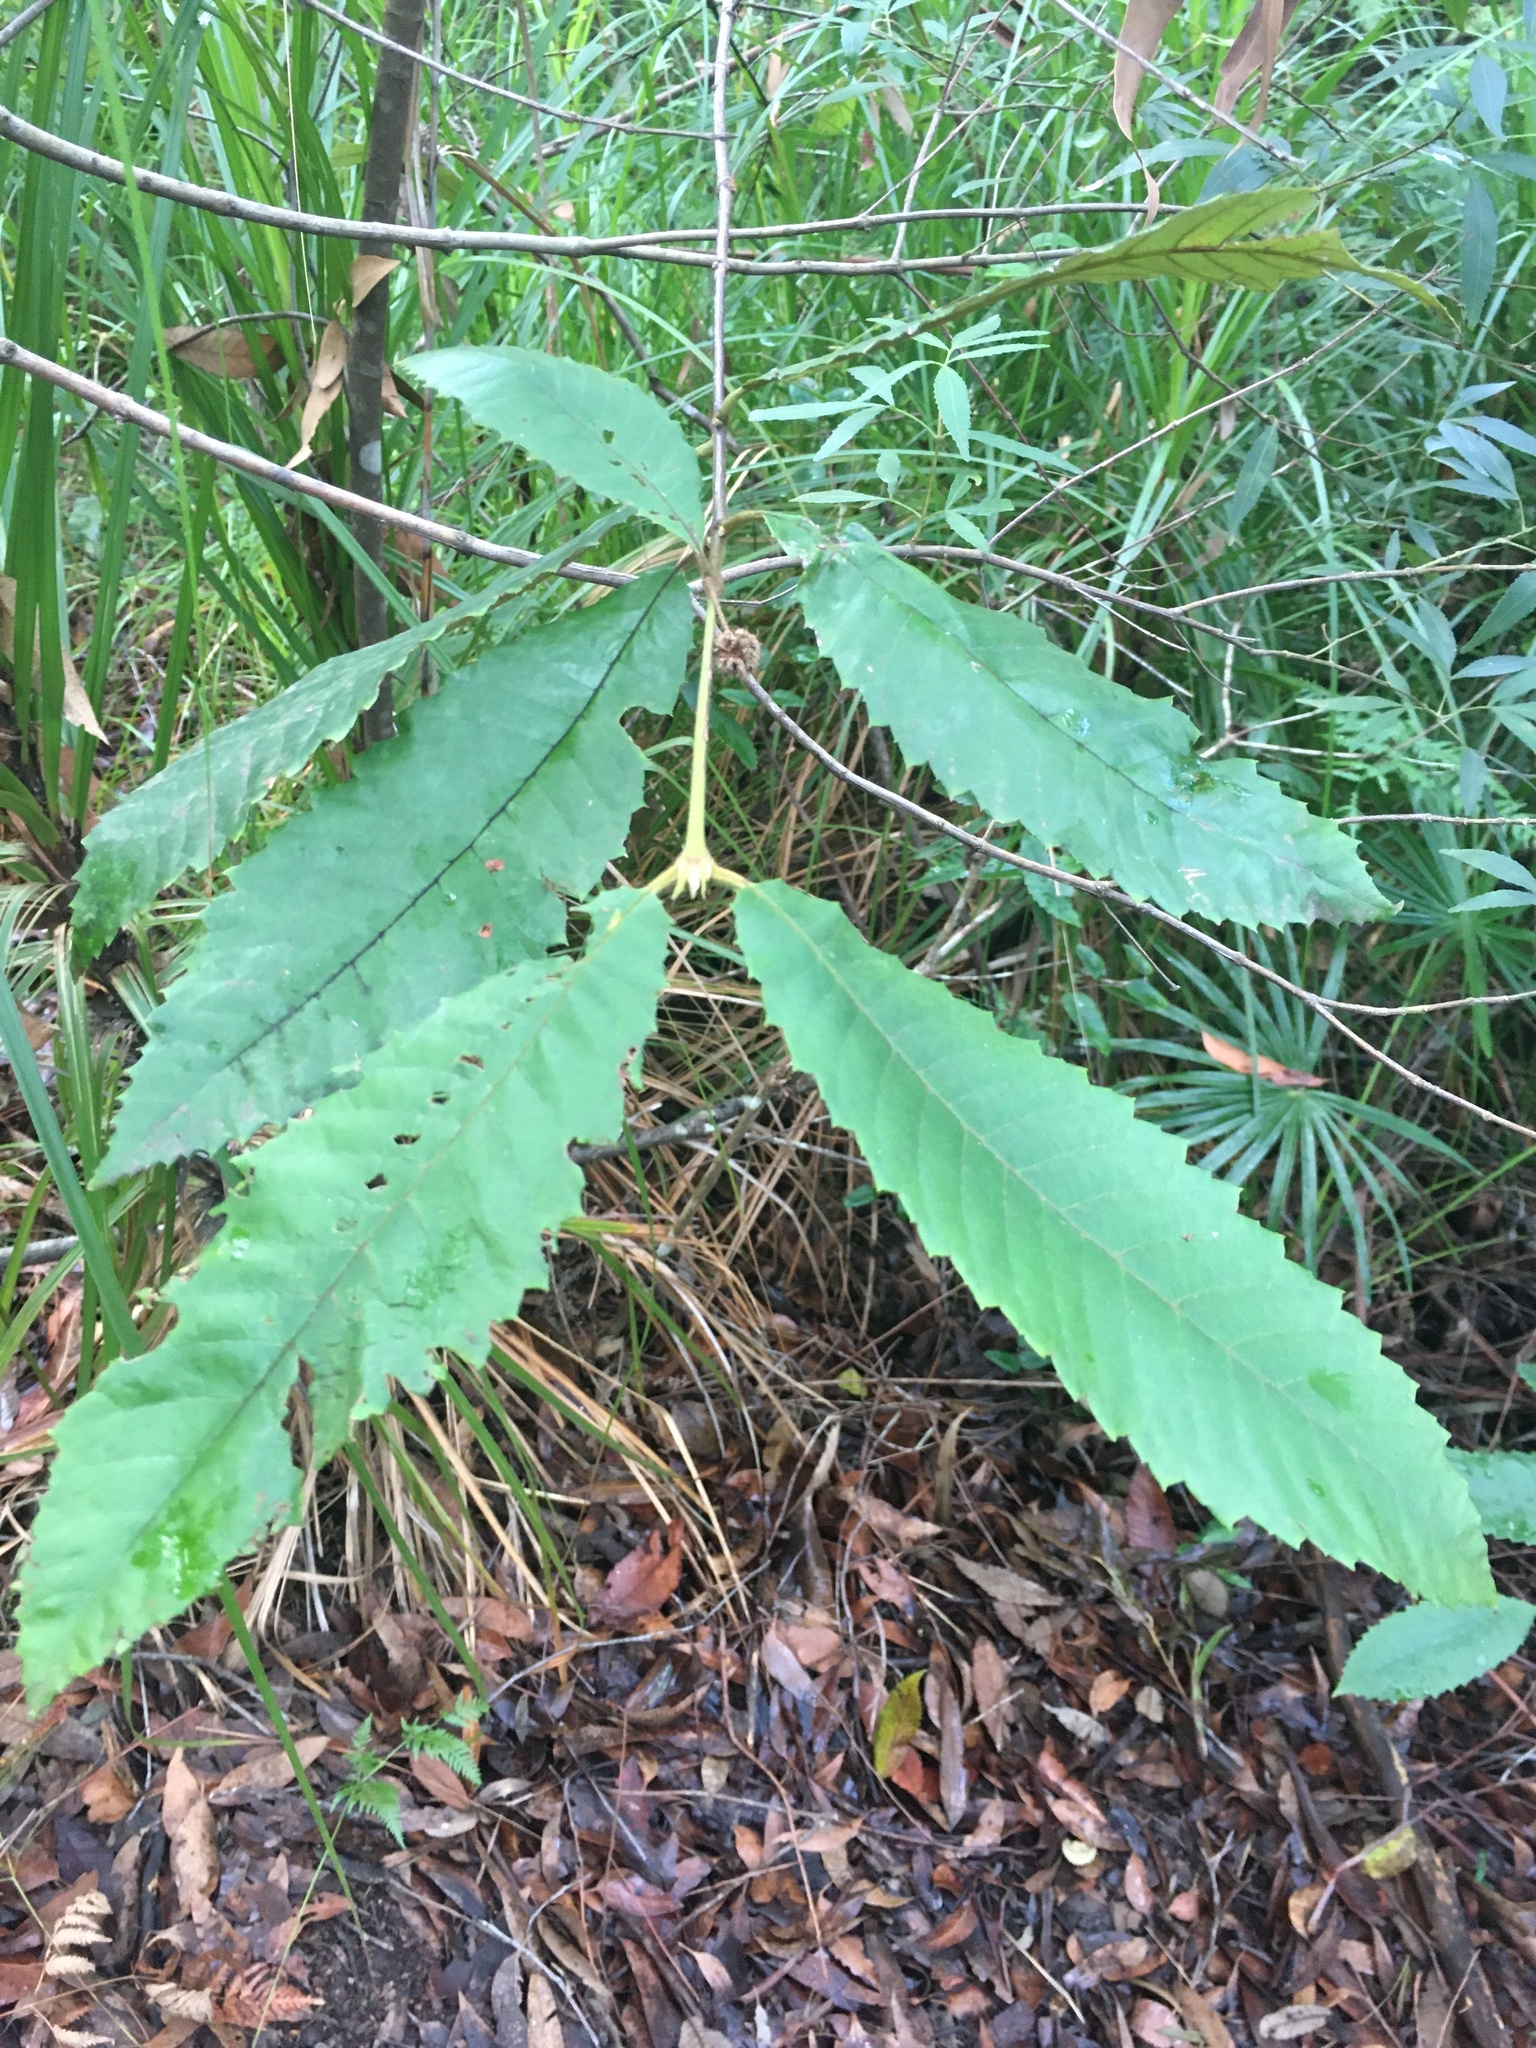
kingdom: Plantae
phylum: Tracheophyta
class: Magnoliopsida
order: Oxalidales
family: Cunoniaceae
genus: Callicoma
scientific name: Callicoma serratifolia
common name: Black wattle
